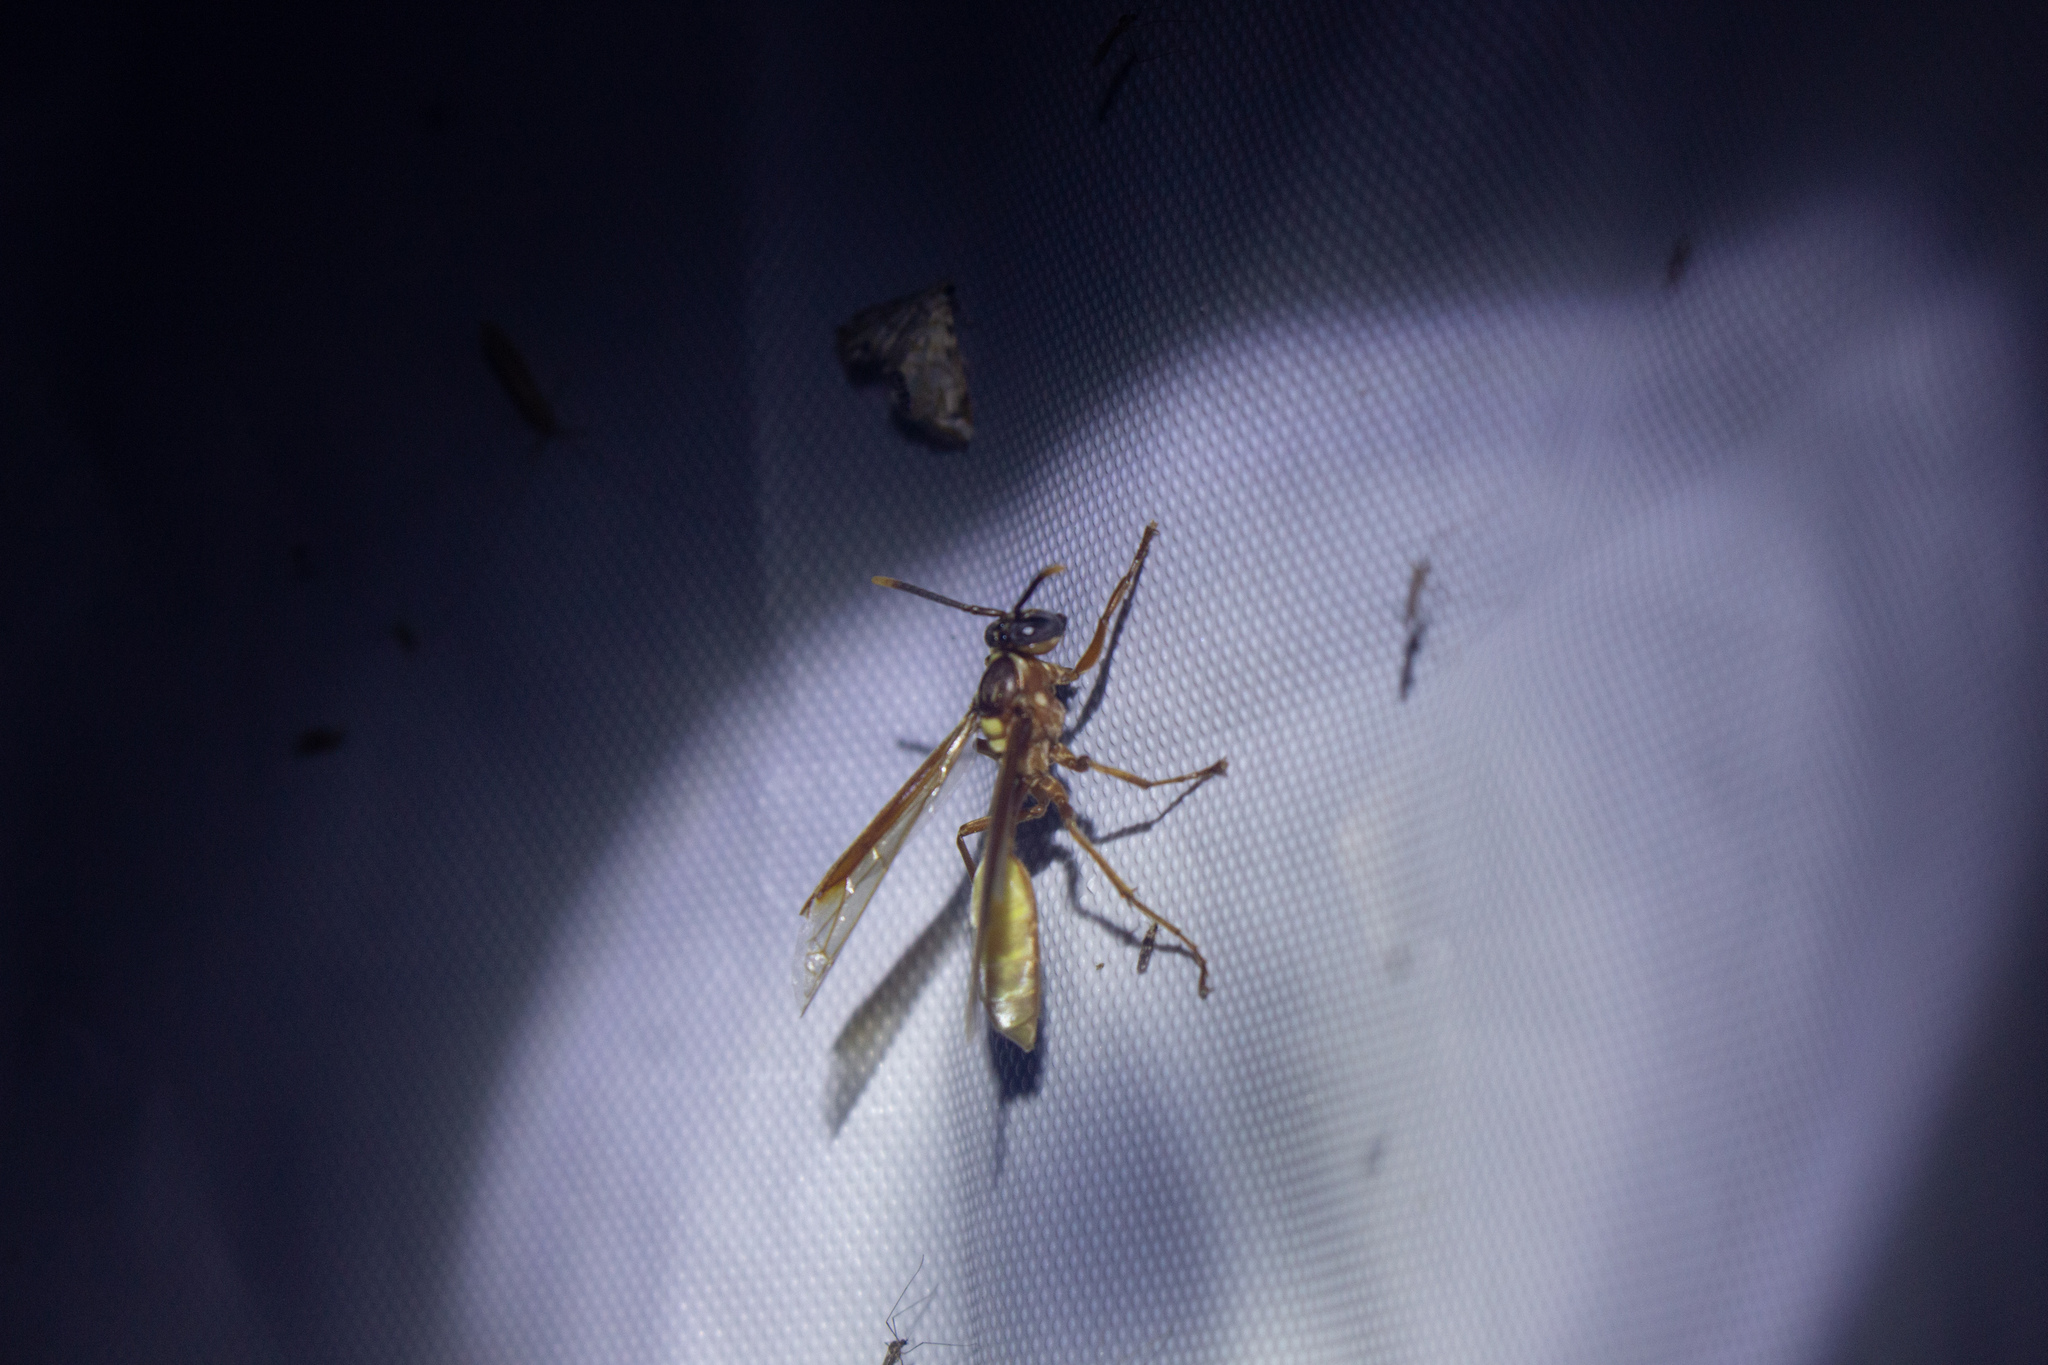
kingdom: Animalia
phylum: Arthropoda
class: Insecta
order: Hymenoptera
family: Vespidae
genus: Apoica
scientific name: Apoica pallens
